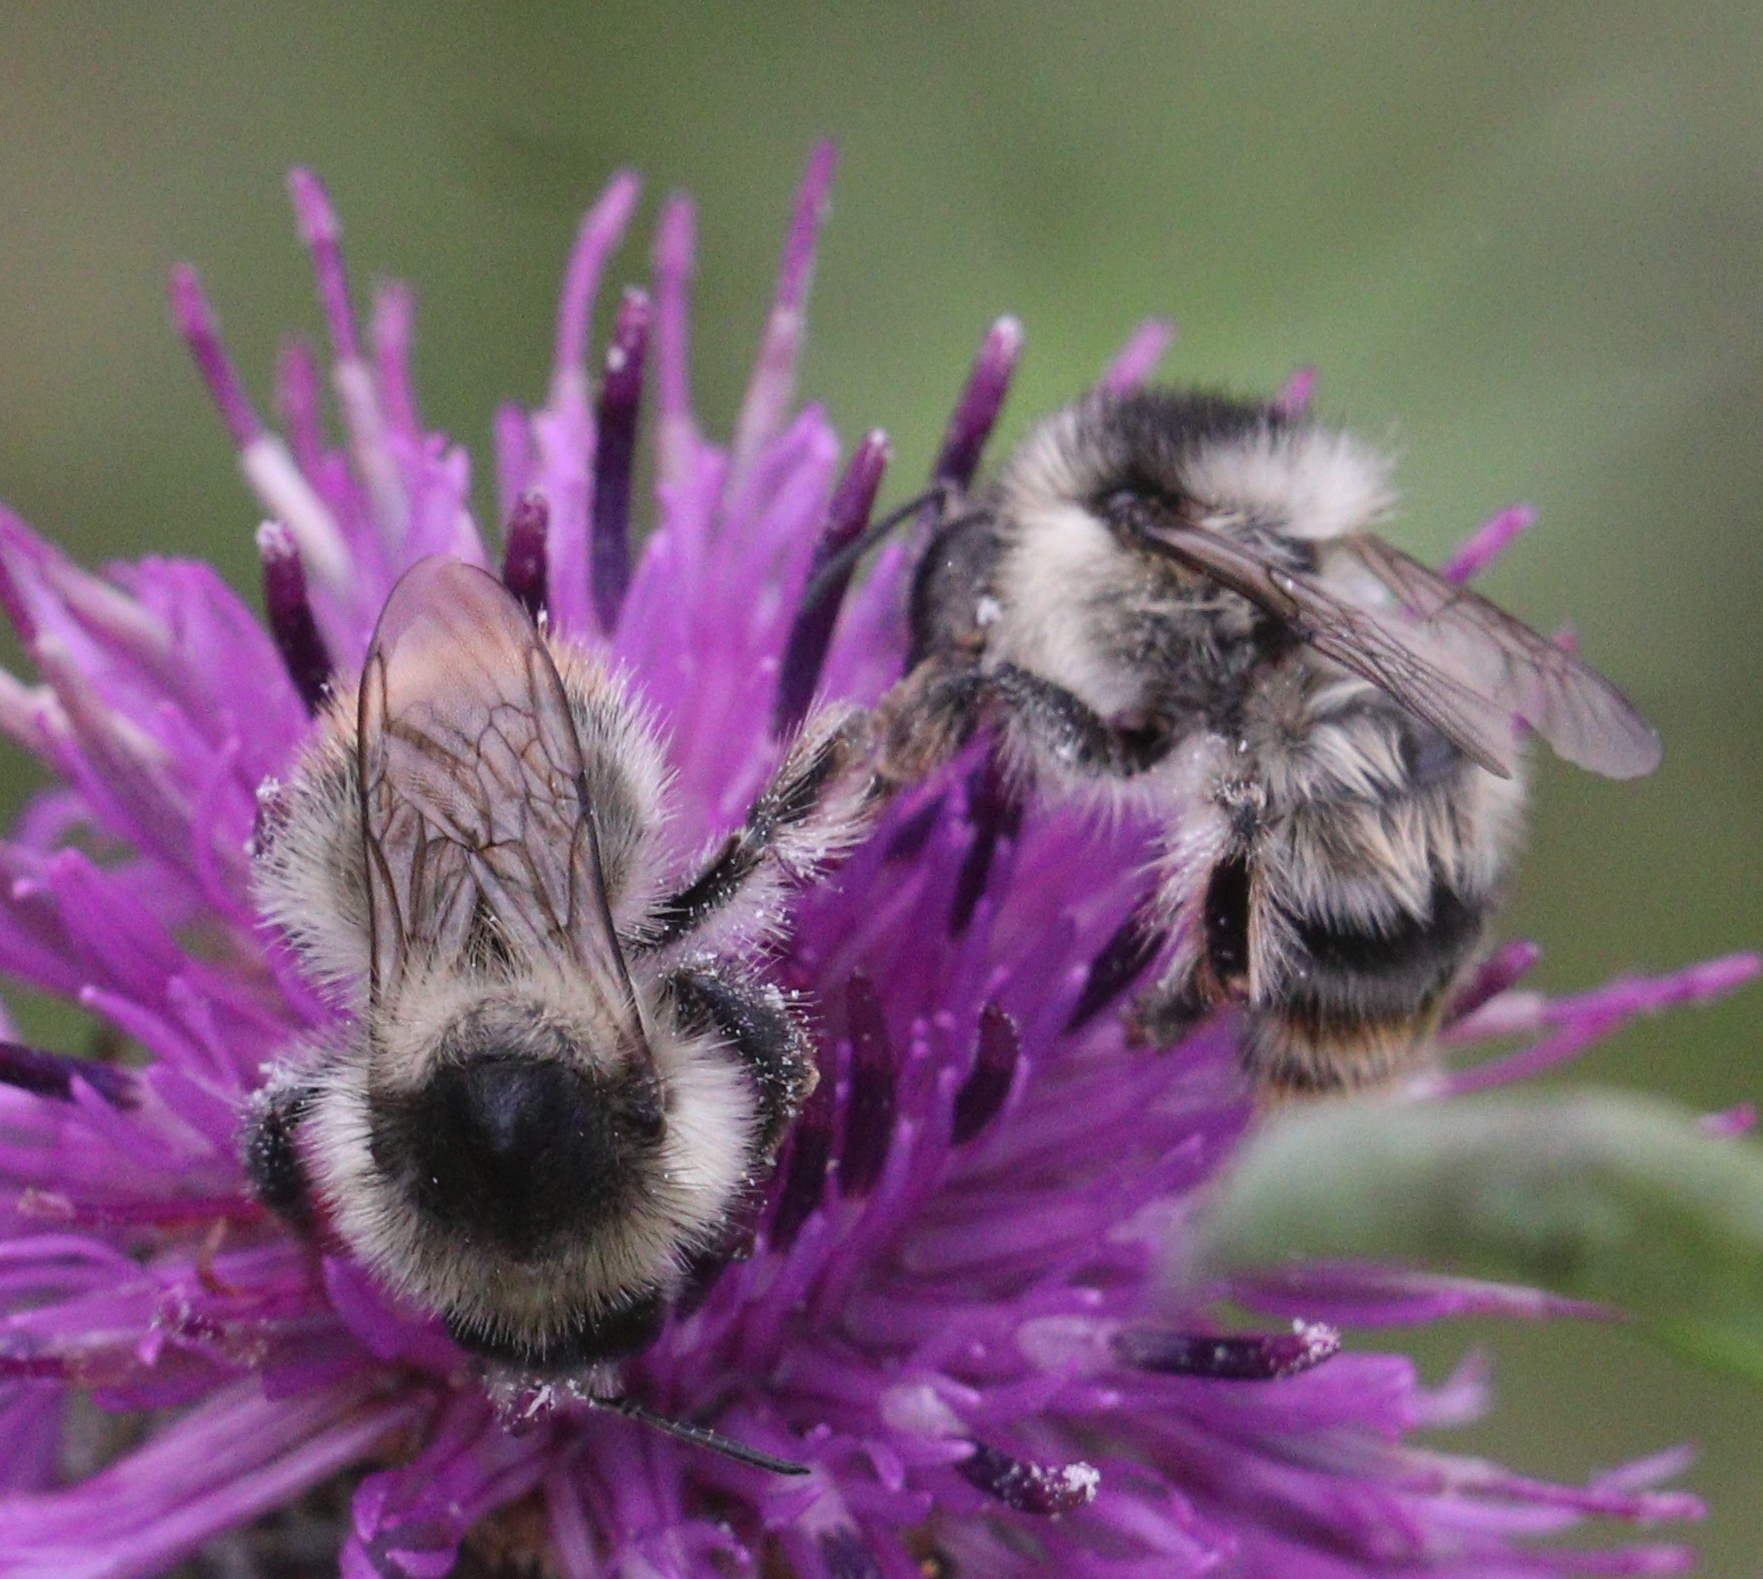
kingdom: Animalia
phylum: Arthropoda
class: Insecta
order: Hymenoptera
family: Apidae
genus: Bombus
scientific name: Bombus sylvarum
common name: Shrill carder bee
